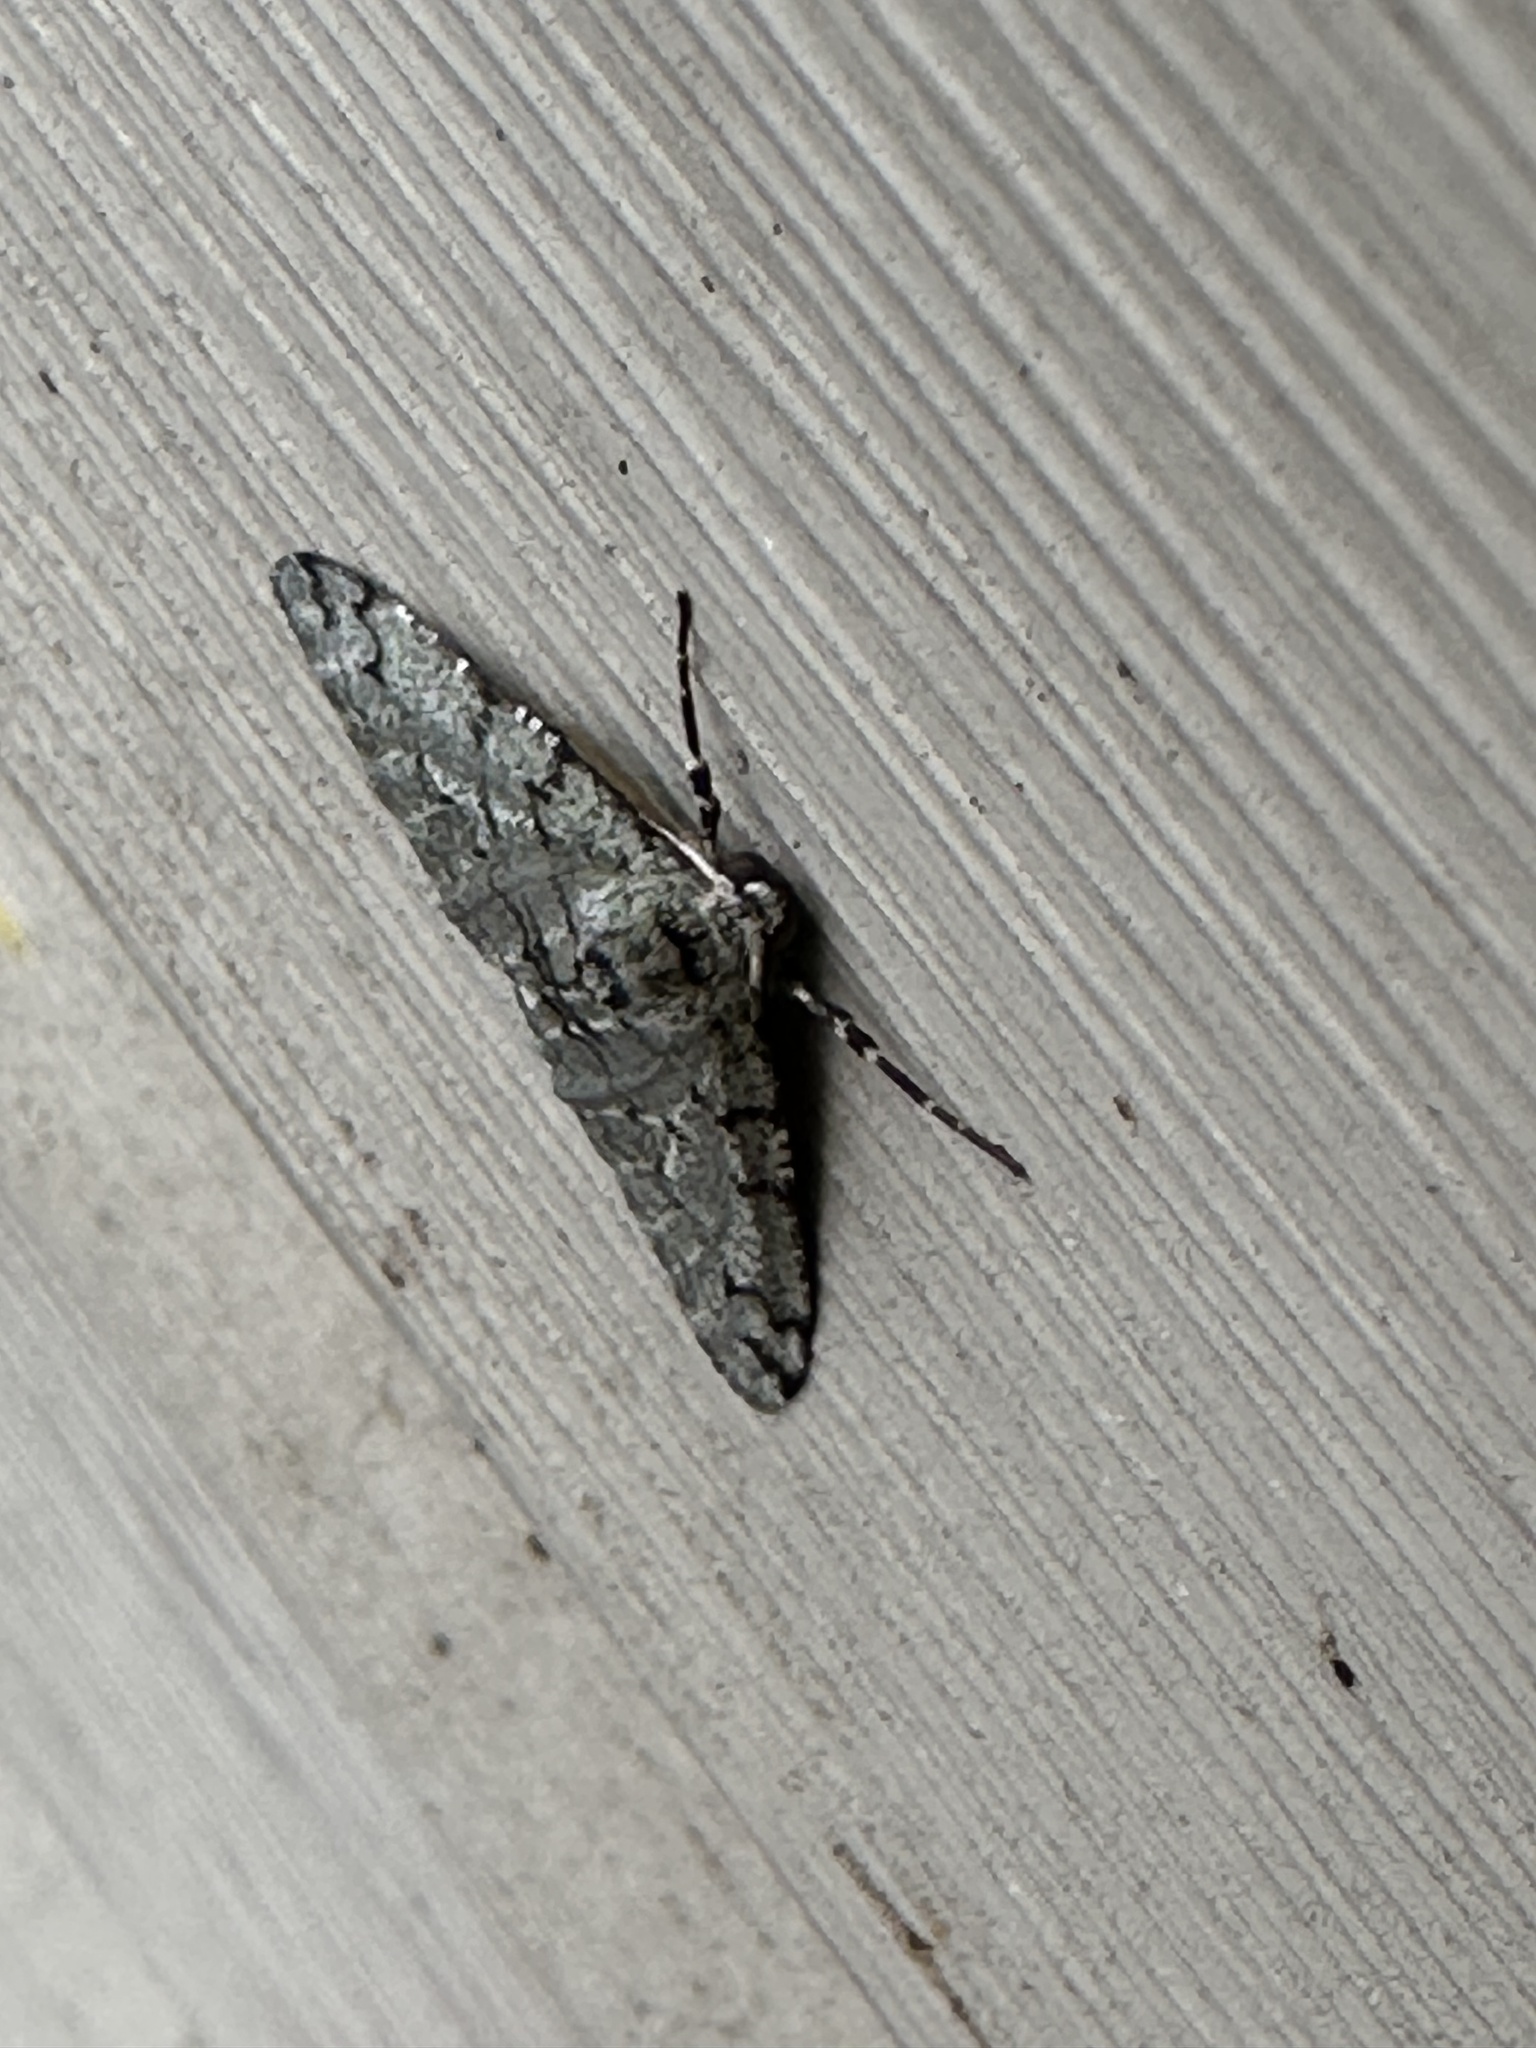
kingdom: Animalia
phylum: Arthropoda
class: Insecta
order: Lepidoptera
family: Geometridae
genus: Phigalia
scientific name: Phigalia strigataria
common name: Small phigalia
